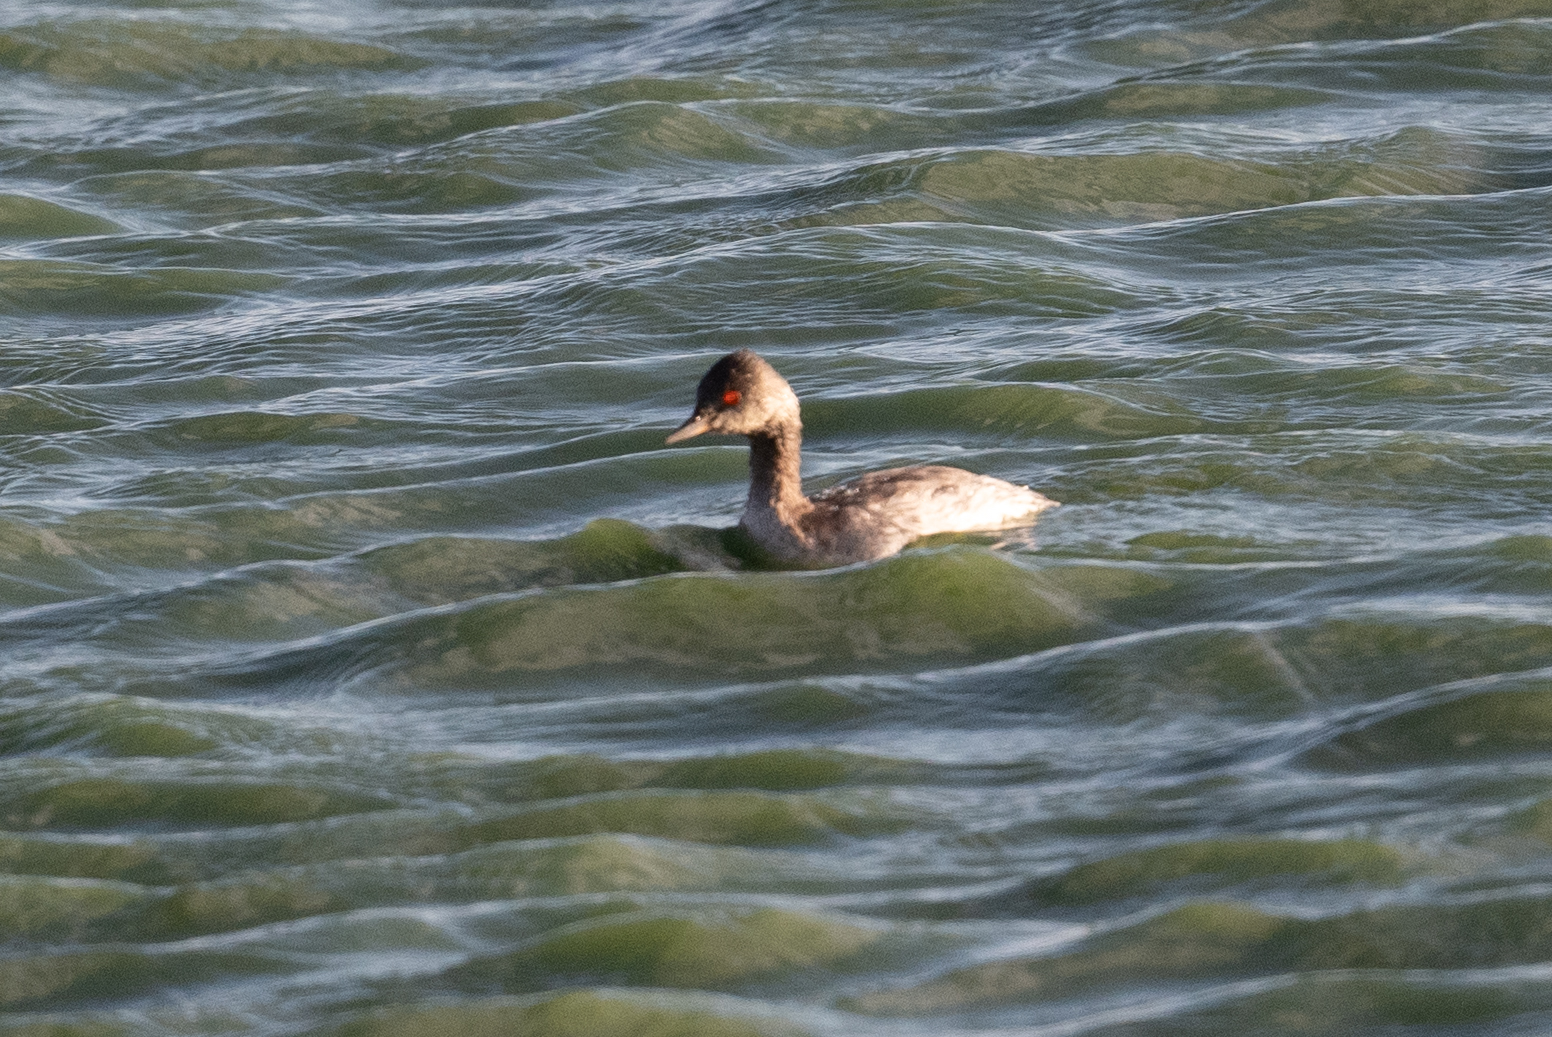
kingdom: Animalia
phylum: Chordata
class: Aves
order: Podicipediformes
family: Podicipedidae
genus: Podiceps
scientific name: Podiceps nigricollis
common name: Black-necked grebe
